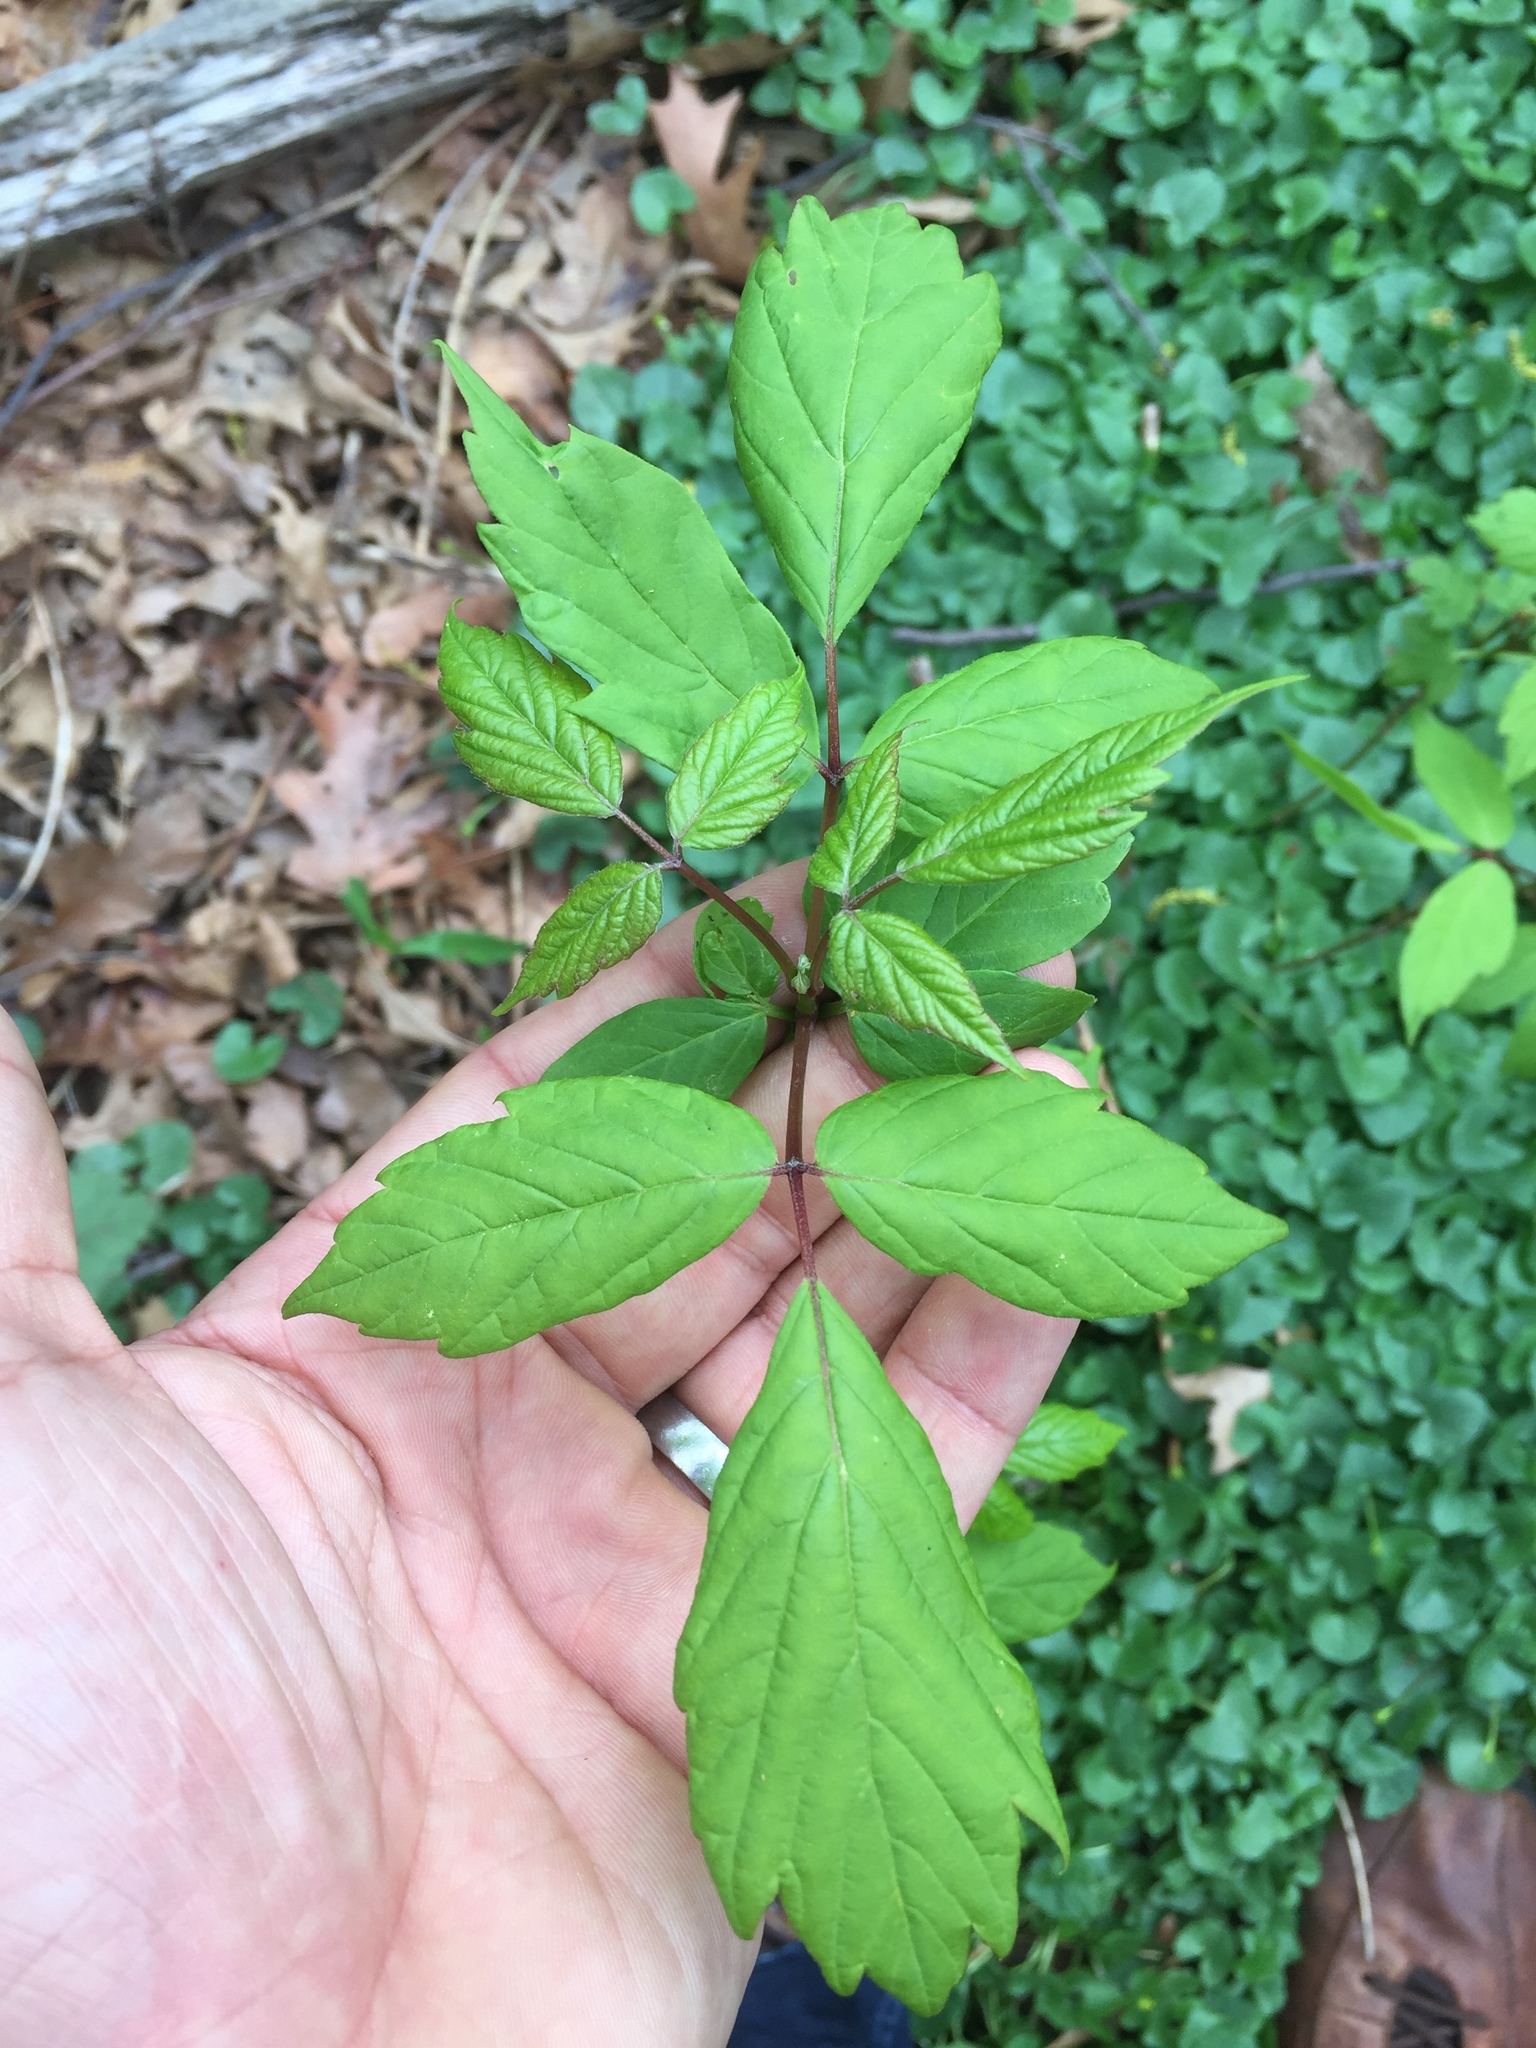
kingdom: Plantae
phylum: Tracheophyta
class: Magnoliopsida
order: Sapindales
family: Sapindaceae
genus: Acer
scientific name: Acer negundo
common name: Ashleaf maple
